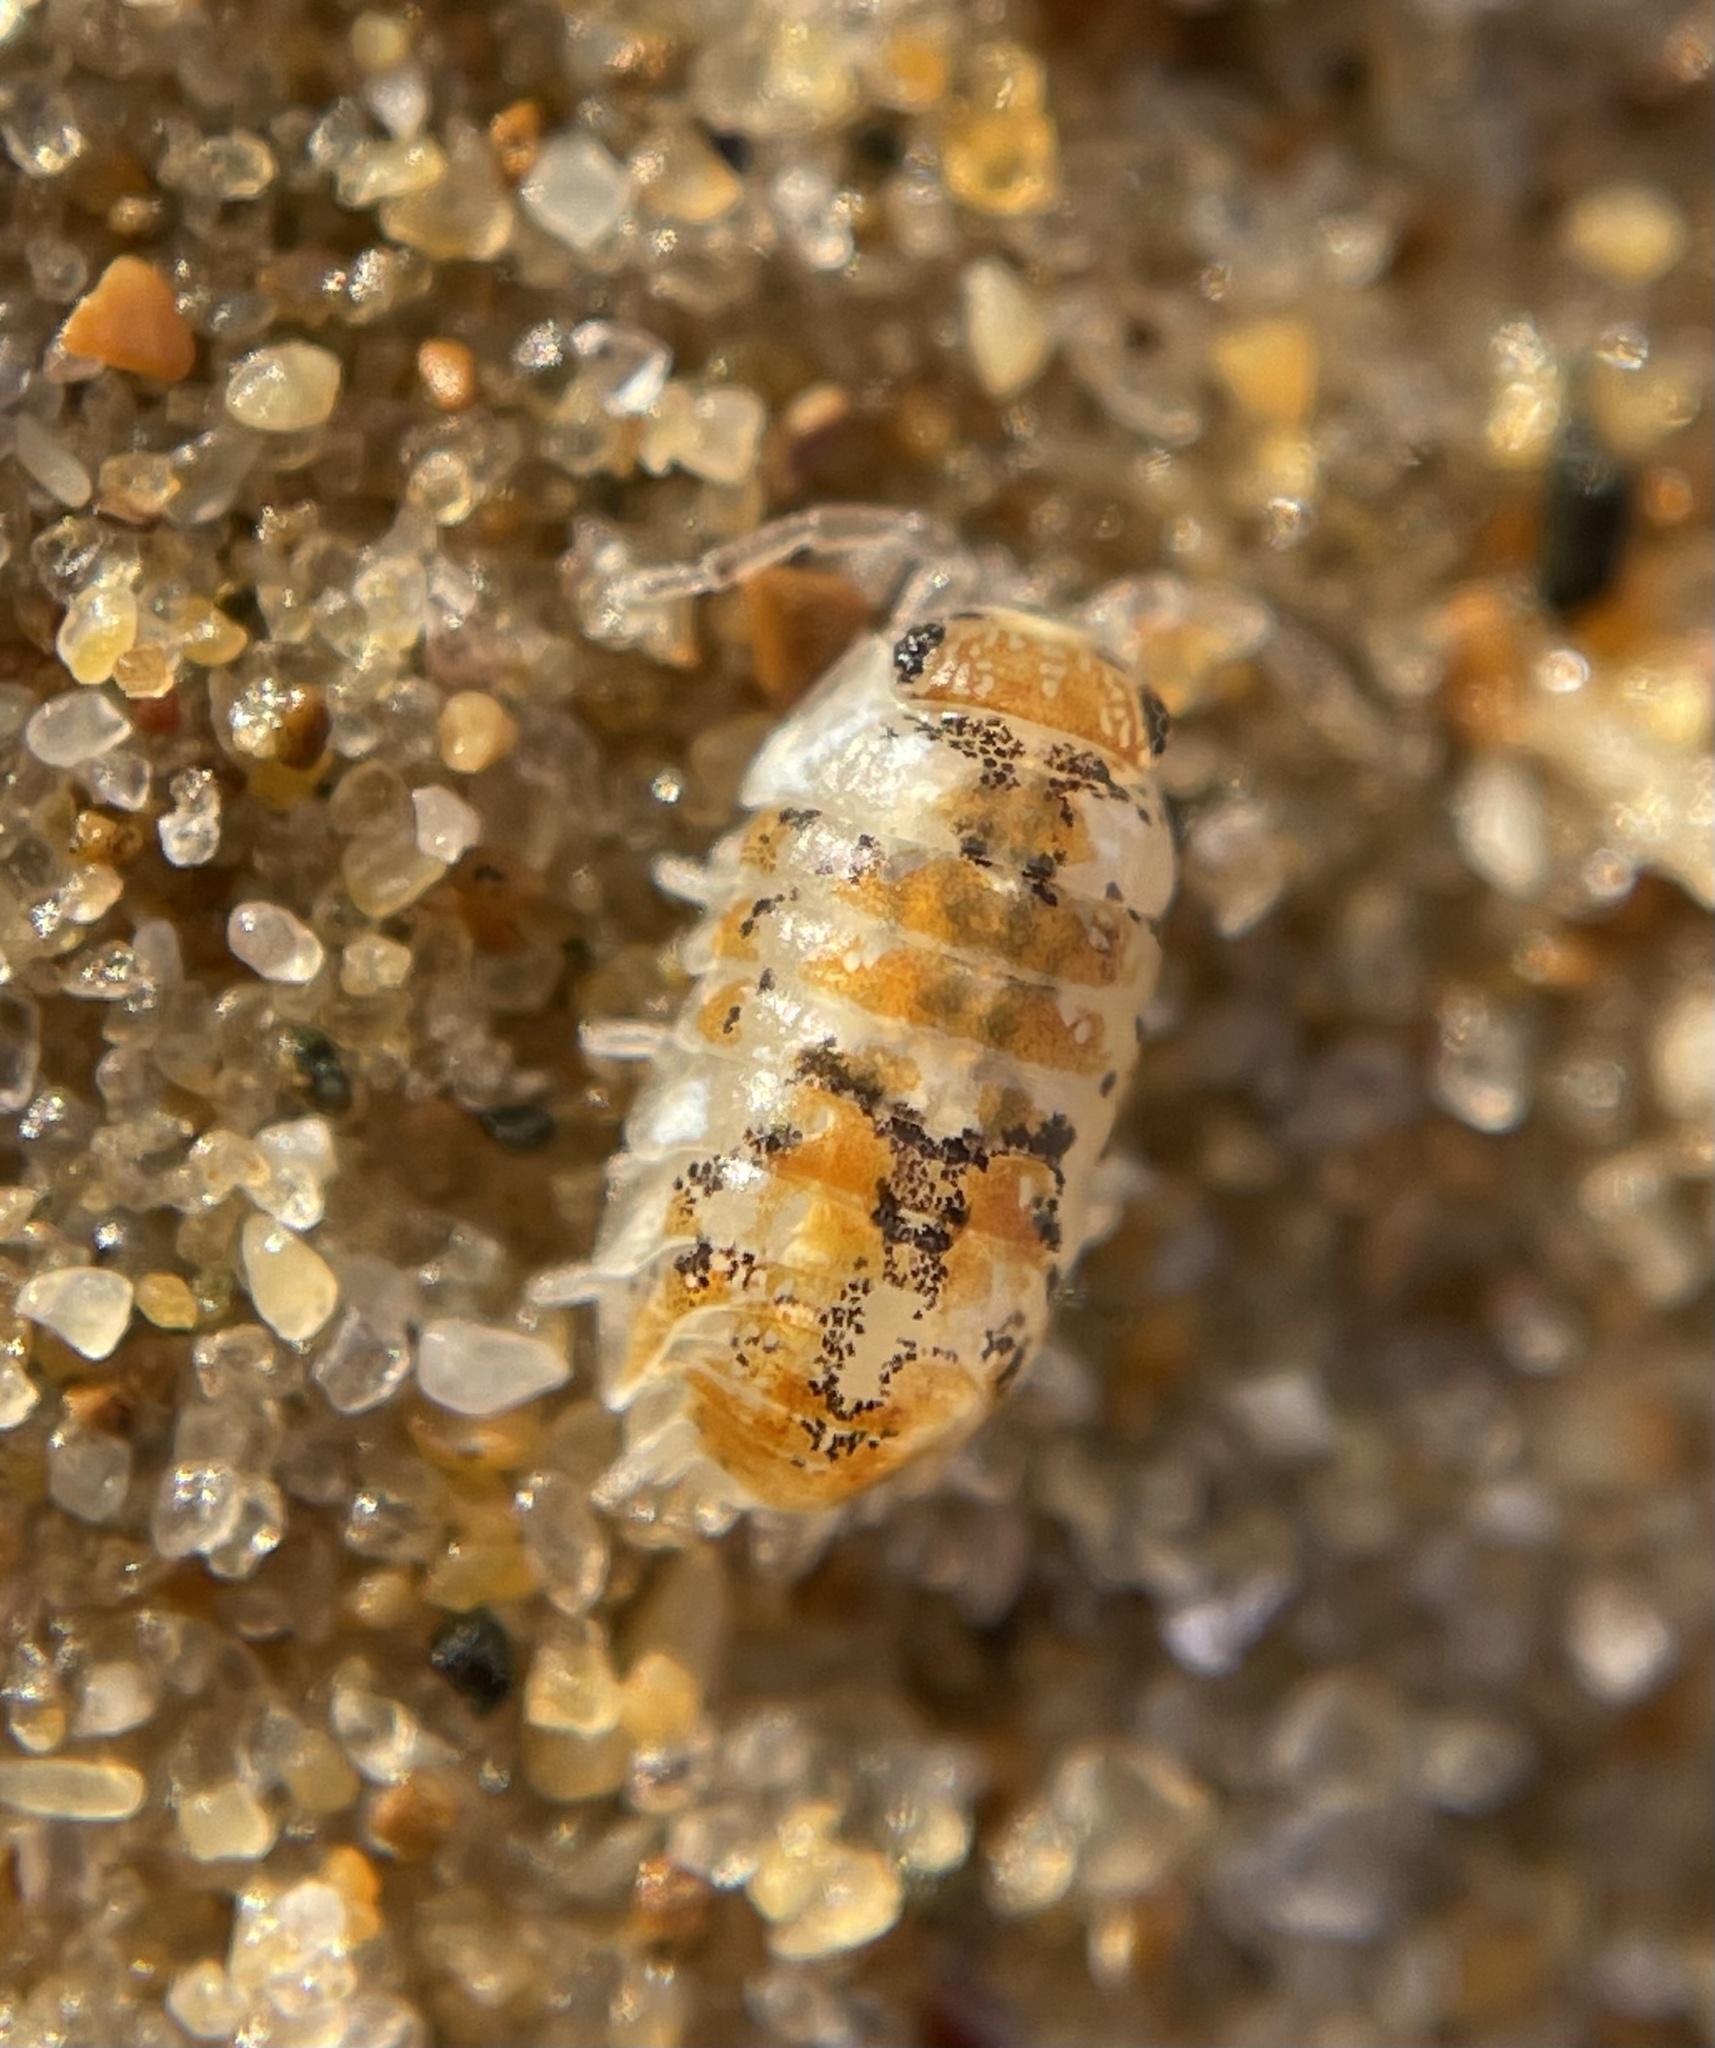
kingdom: Animalia
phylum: Arthropoda
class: Malacostraca
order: Isopoda
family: Scyphacidae
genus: Actaecia
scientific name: Actaecia thomsoni
